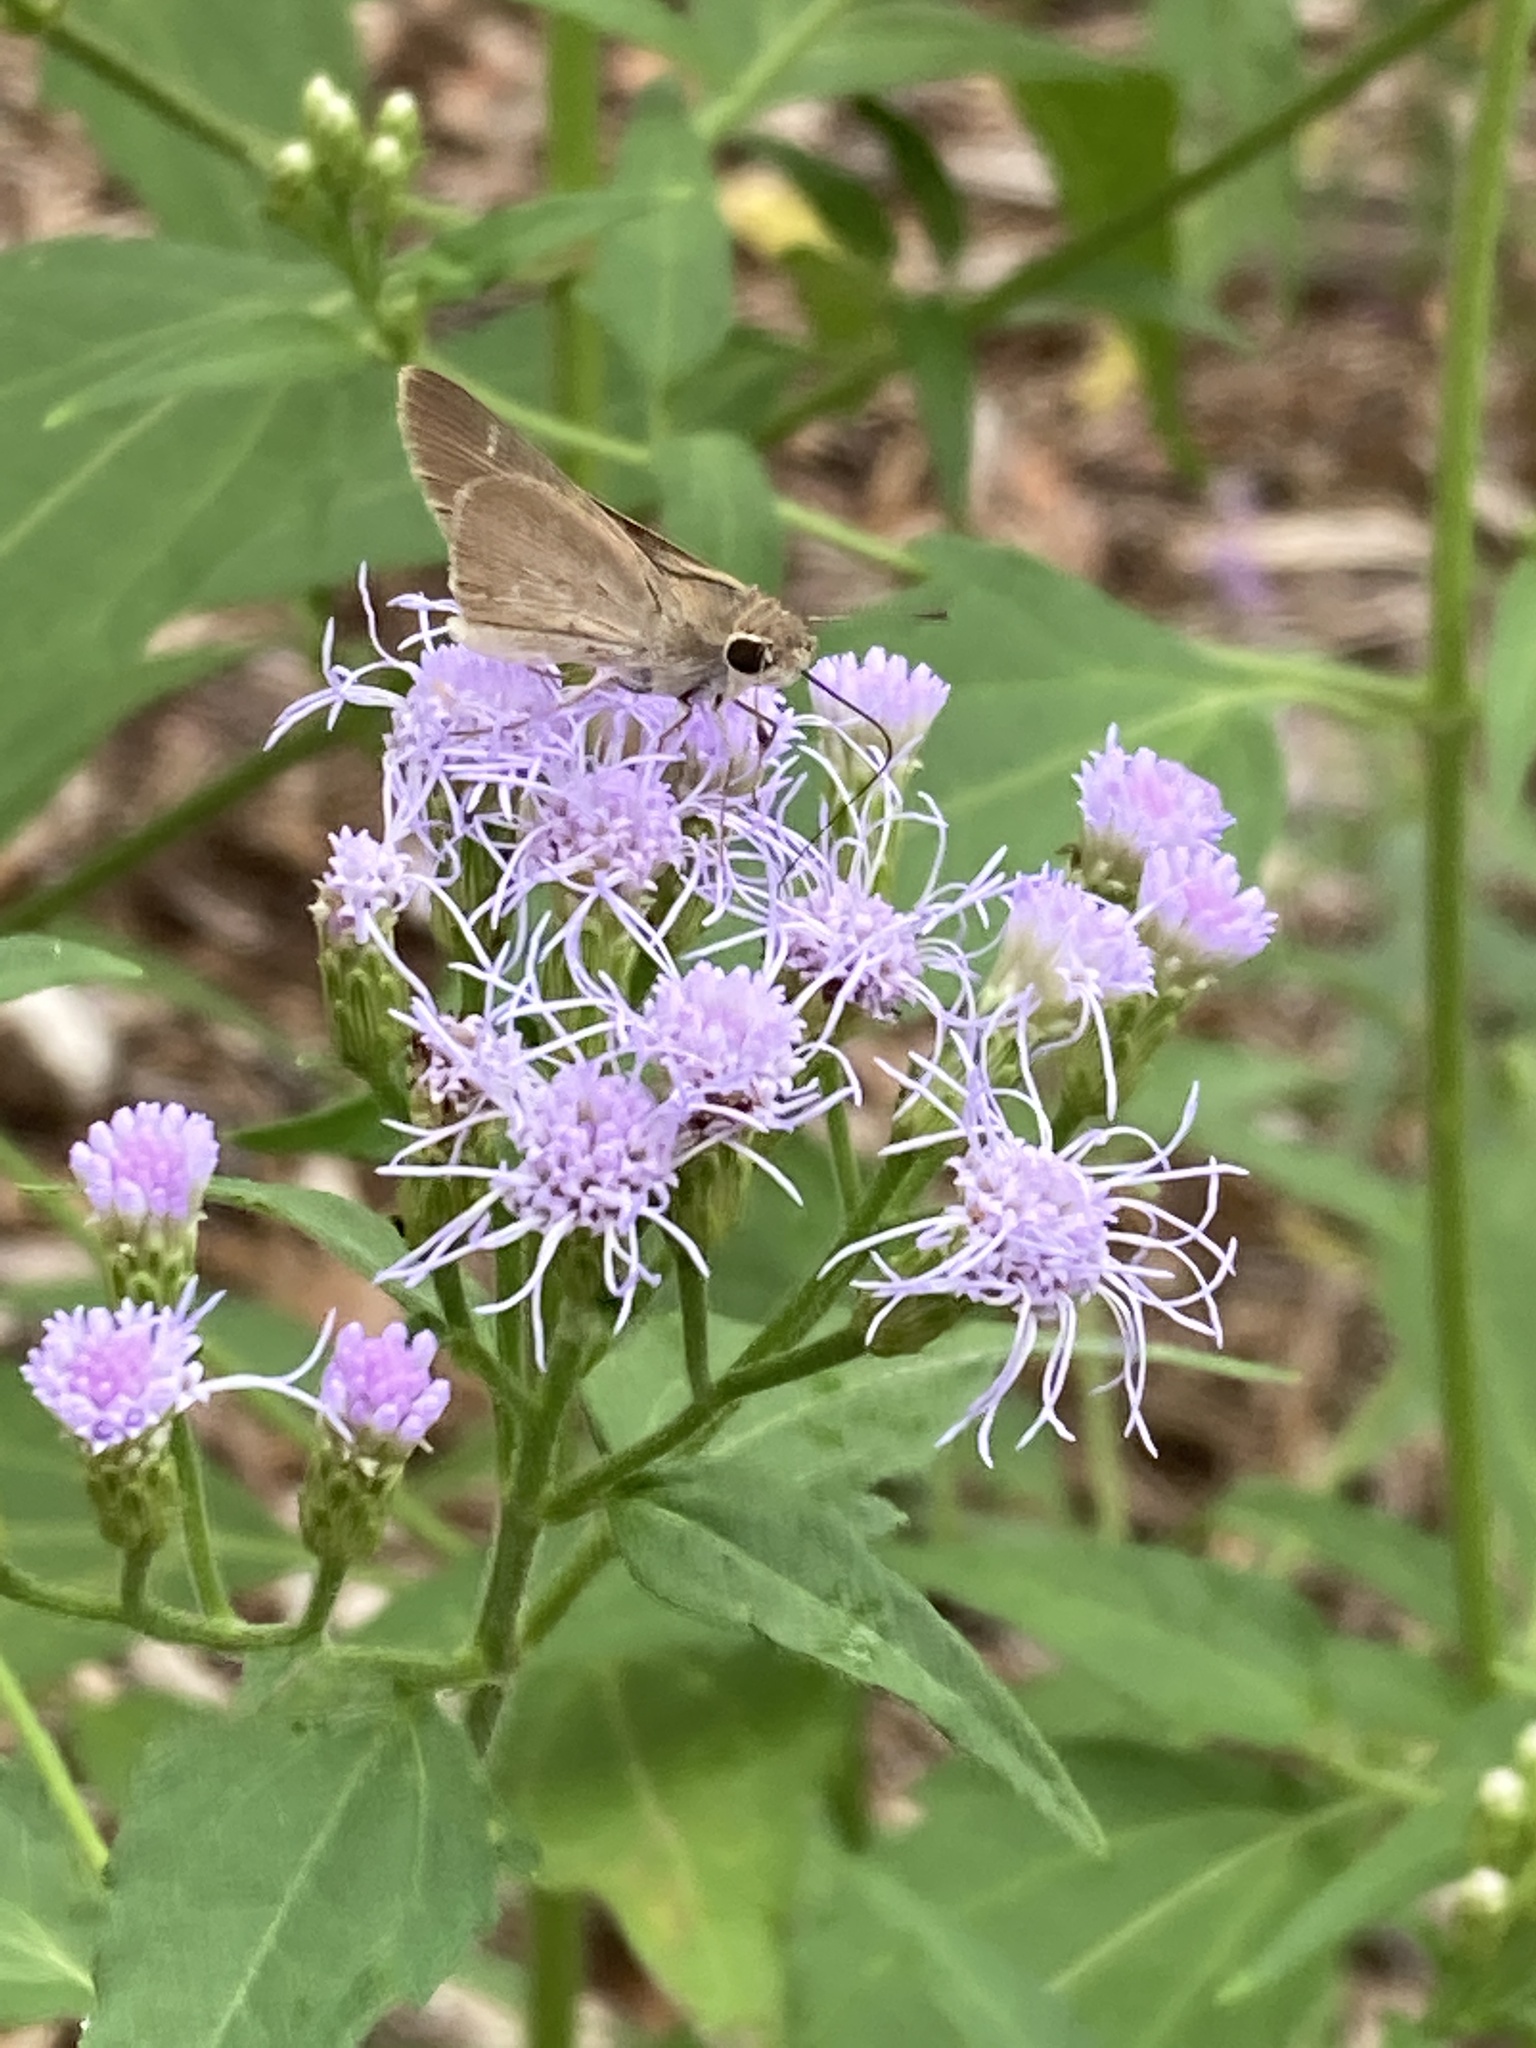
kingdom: Animalia
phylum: Arthropoda
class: Insecta
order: Lepidoptera
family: Hesperiidae
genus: Lerodea
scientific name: Lerodea eufala
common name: Eufala skipper
